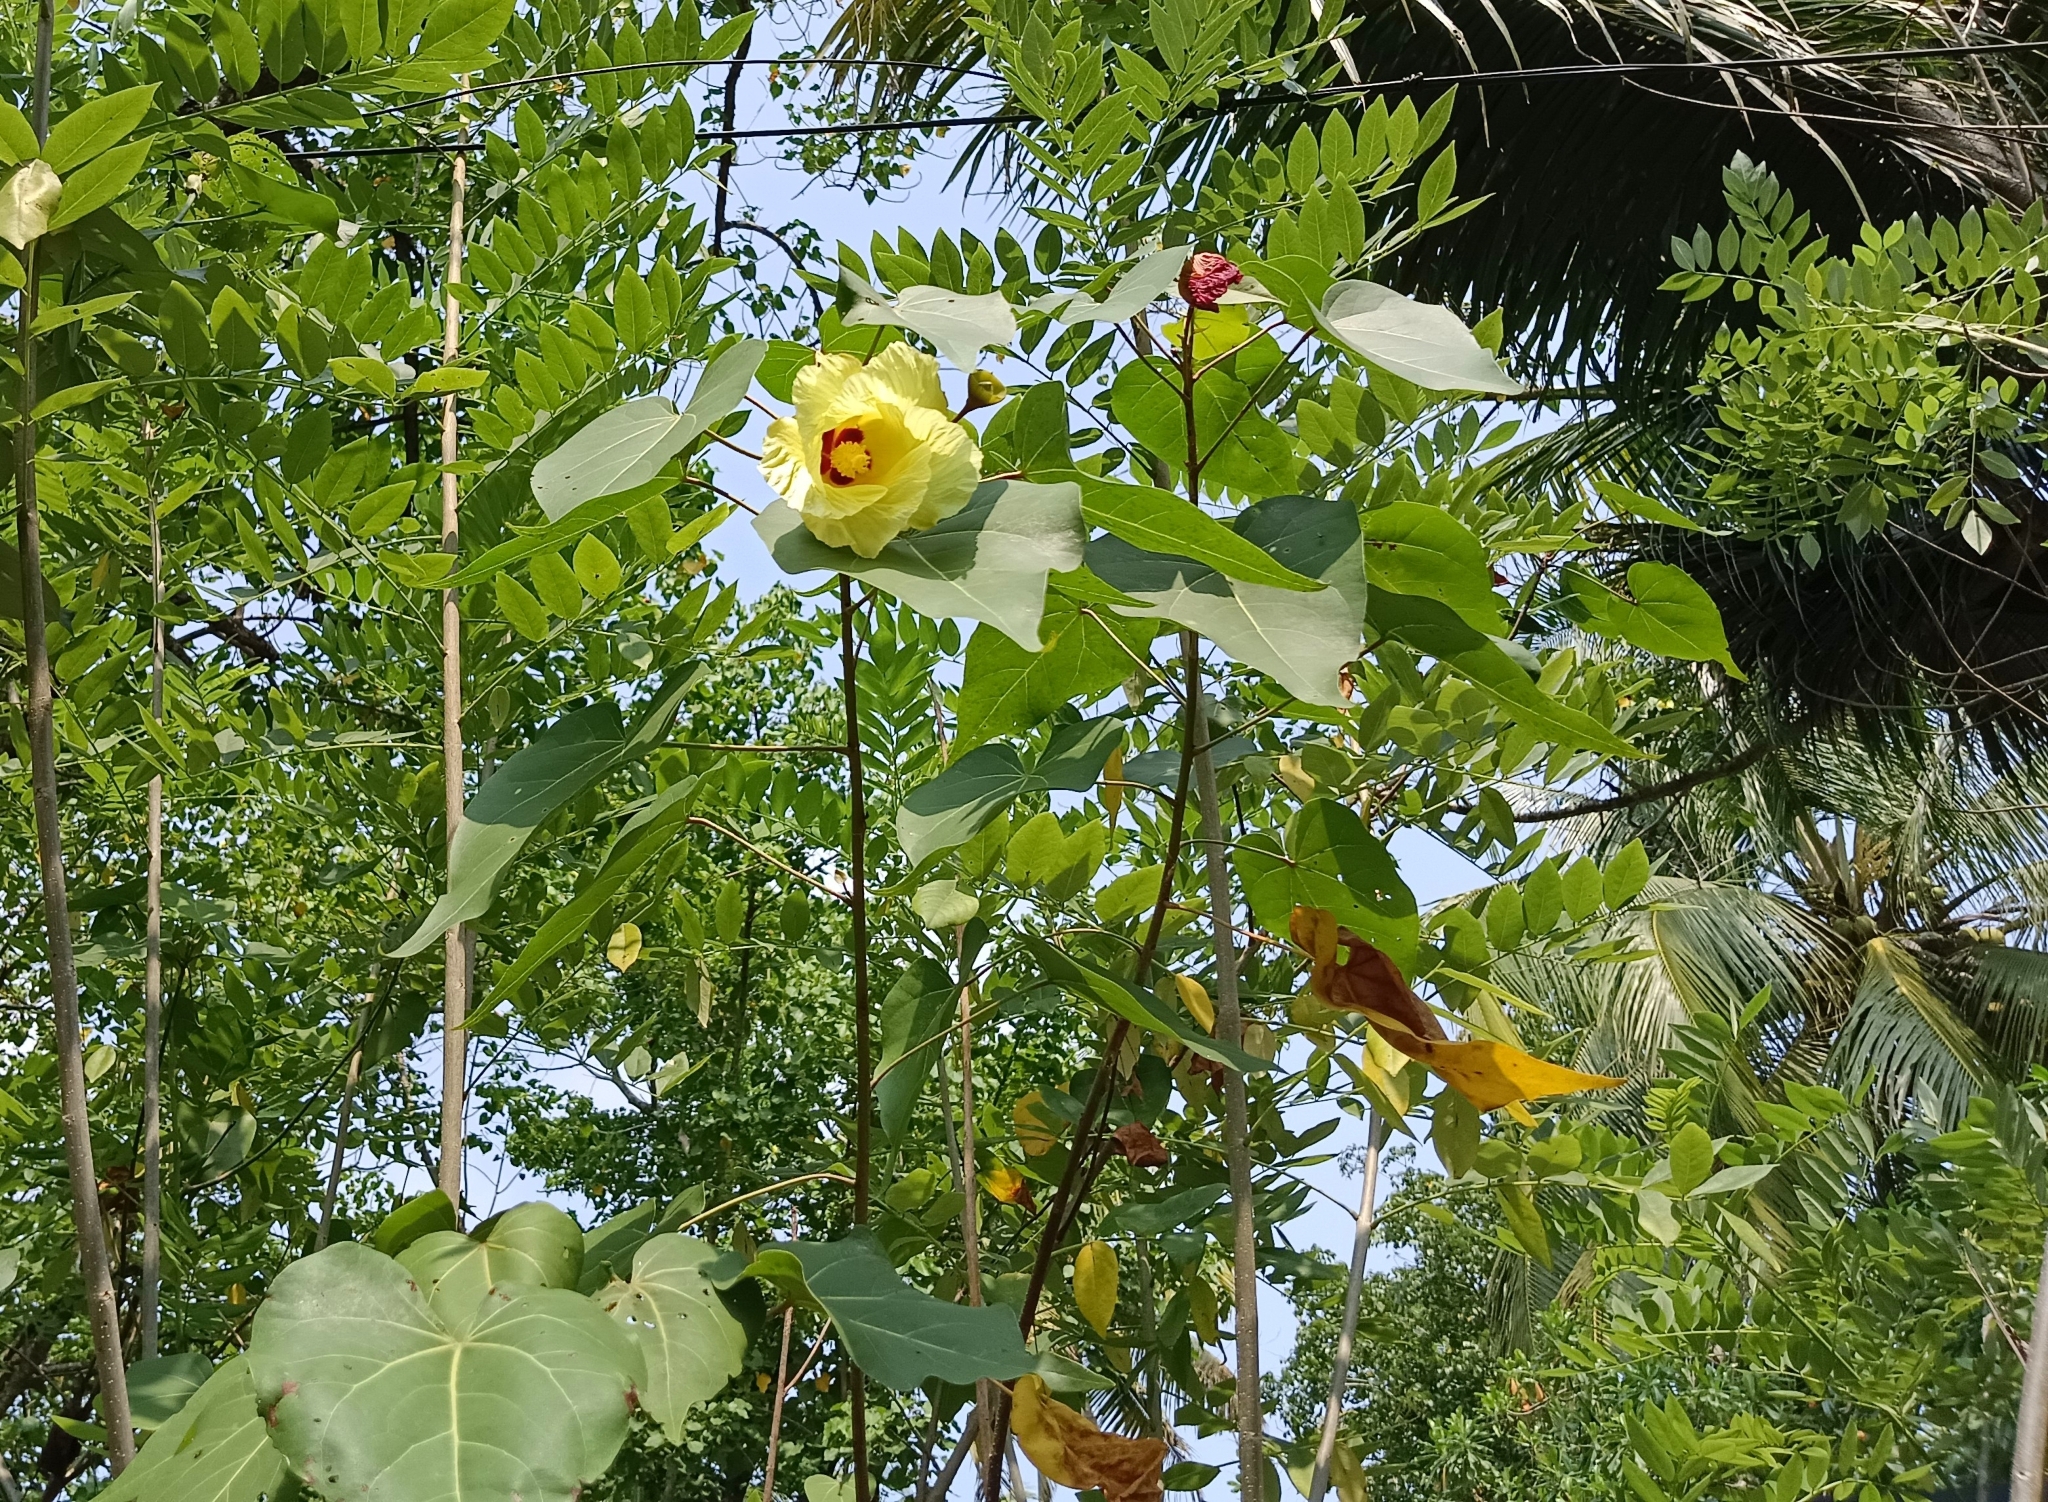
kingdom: Plantae
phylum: Tracheophyta
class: Magnoliopsida
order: Malvales
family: Malvaceae
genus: Thespesia
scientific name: Thespesia populnea
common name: Seaside mahoe
